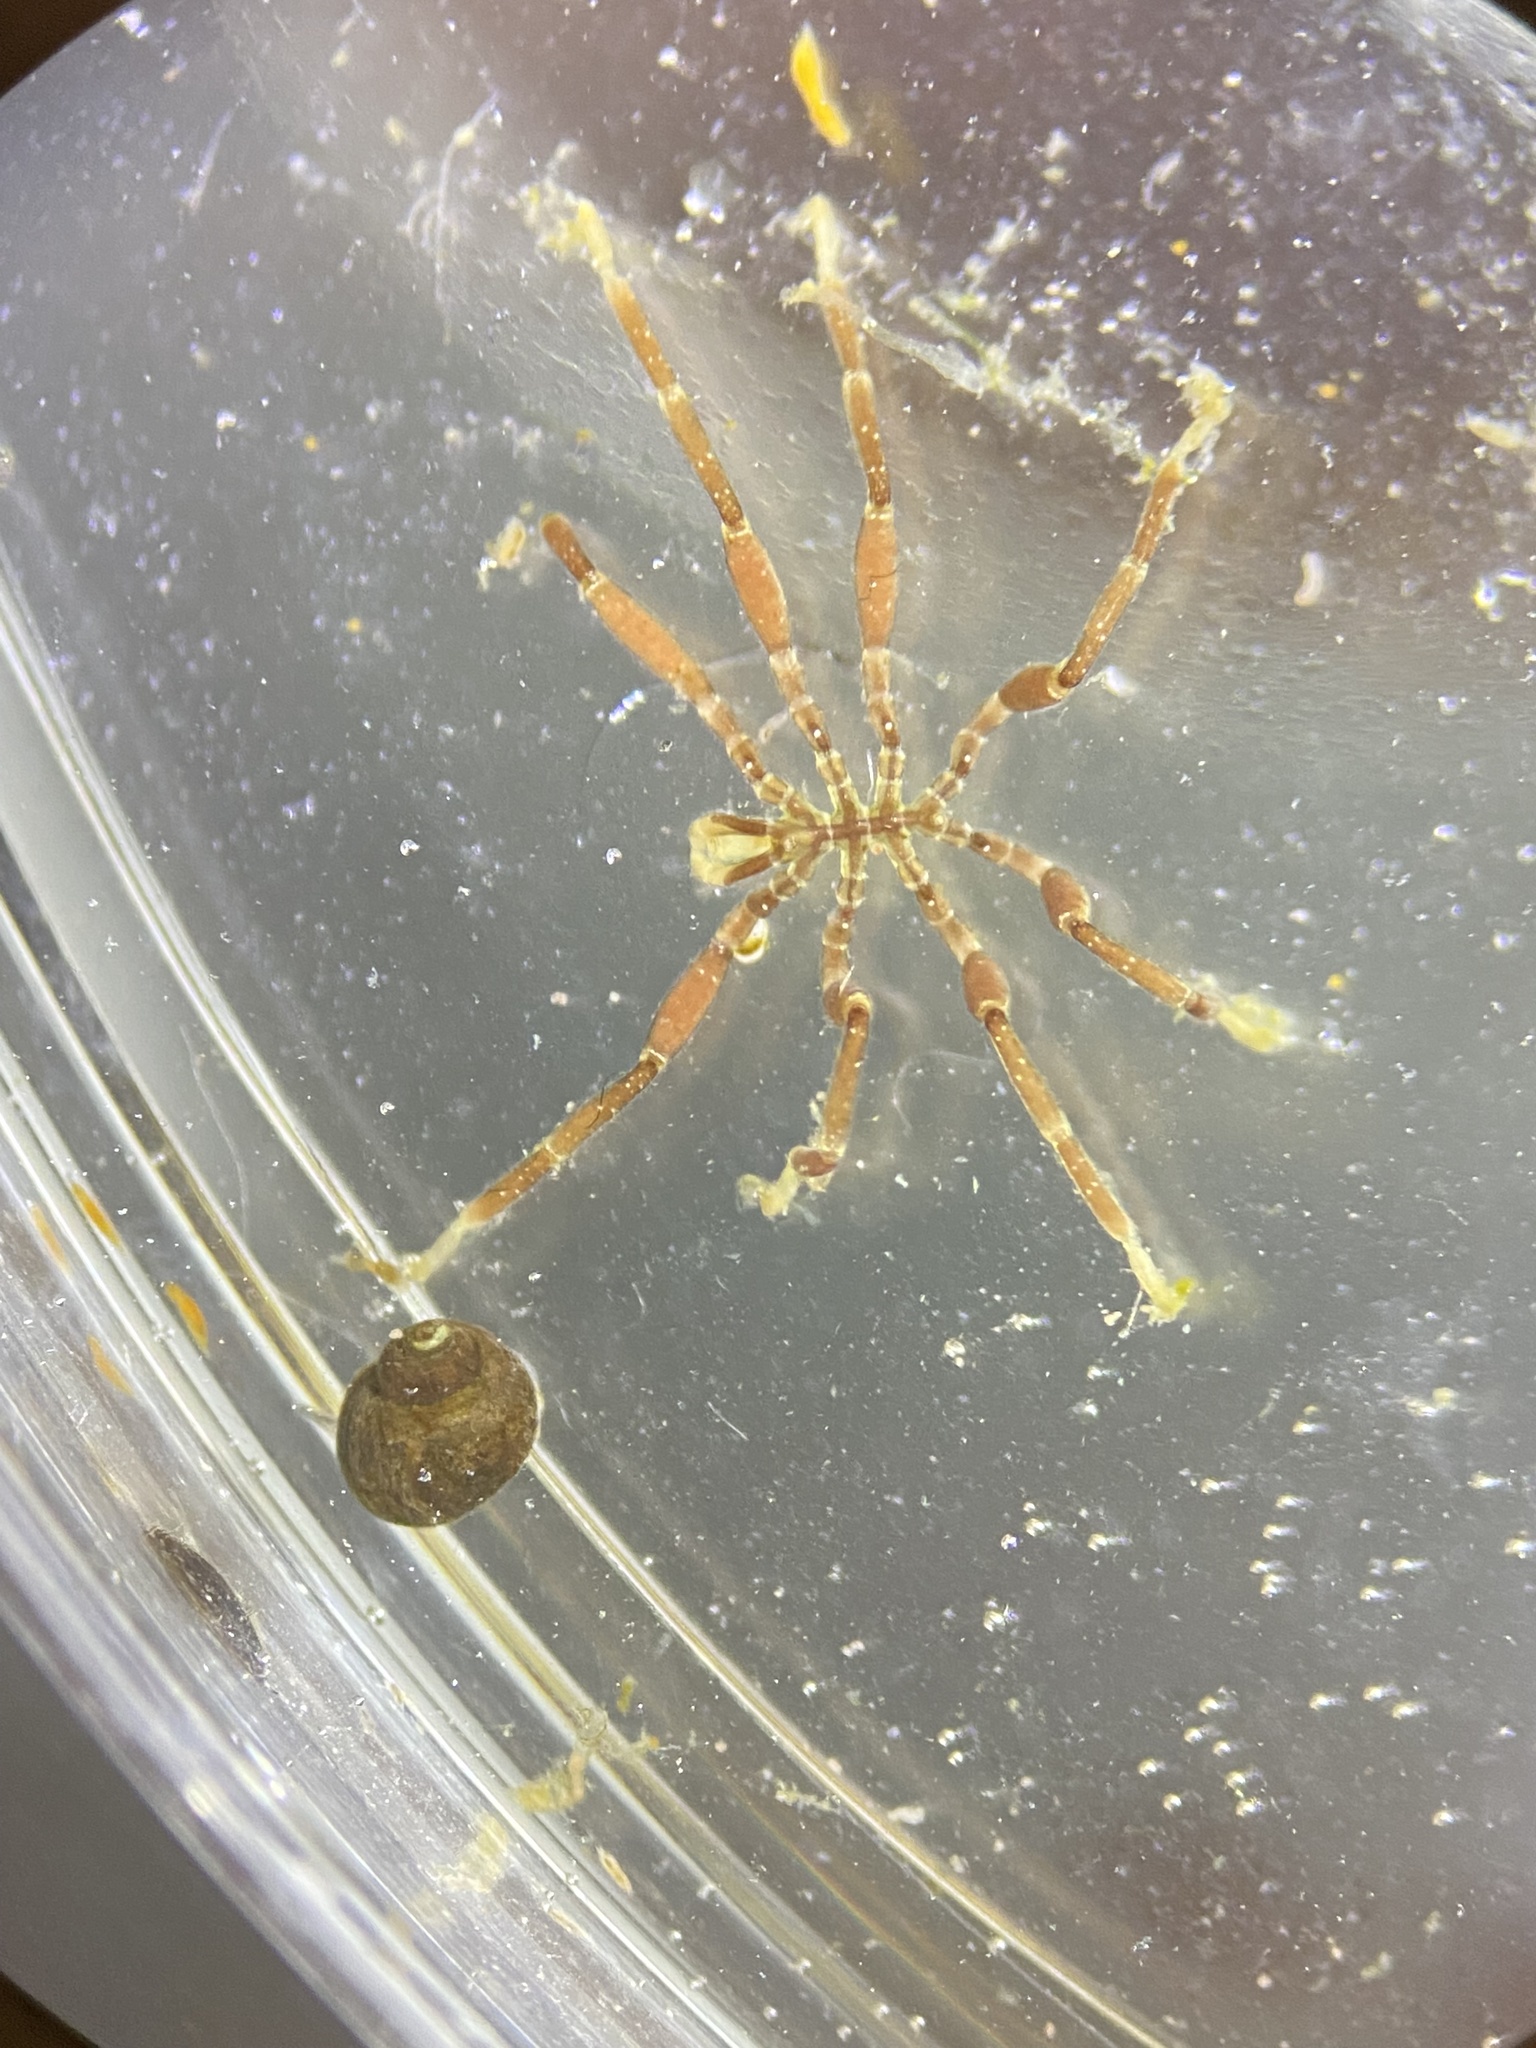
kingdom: Animalia
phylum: Arthropoda
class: Pycnogonida
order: Pantopoda
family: Phoxichilidiidae
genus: Phoxichilidium
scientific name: Phoxichilidium femoratum
